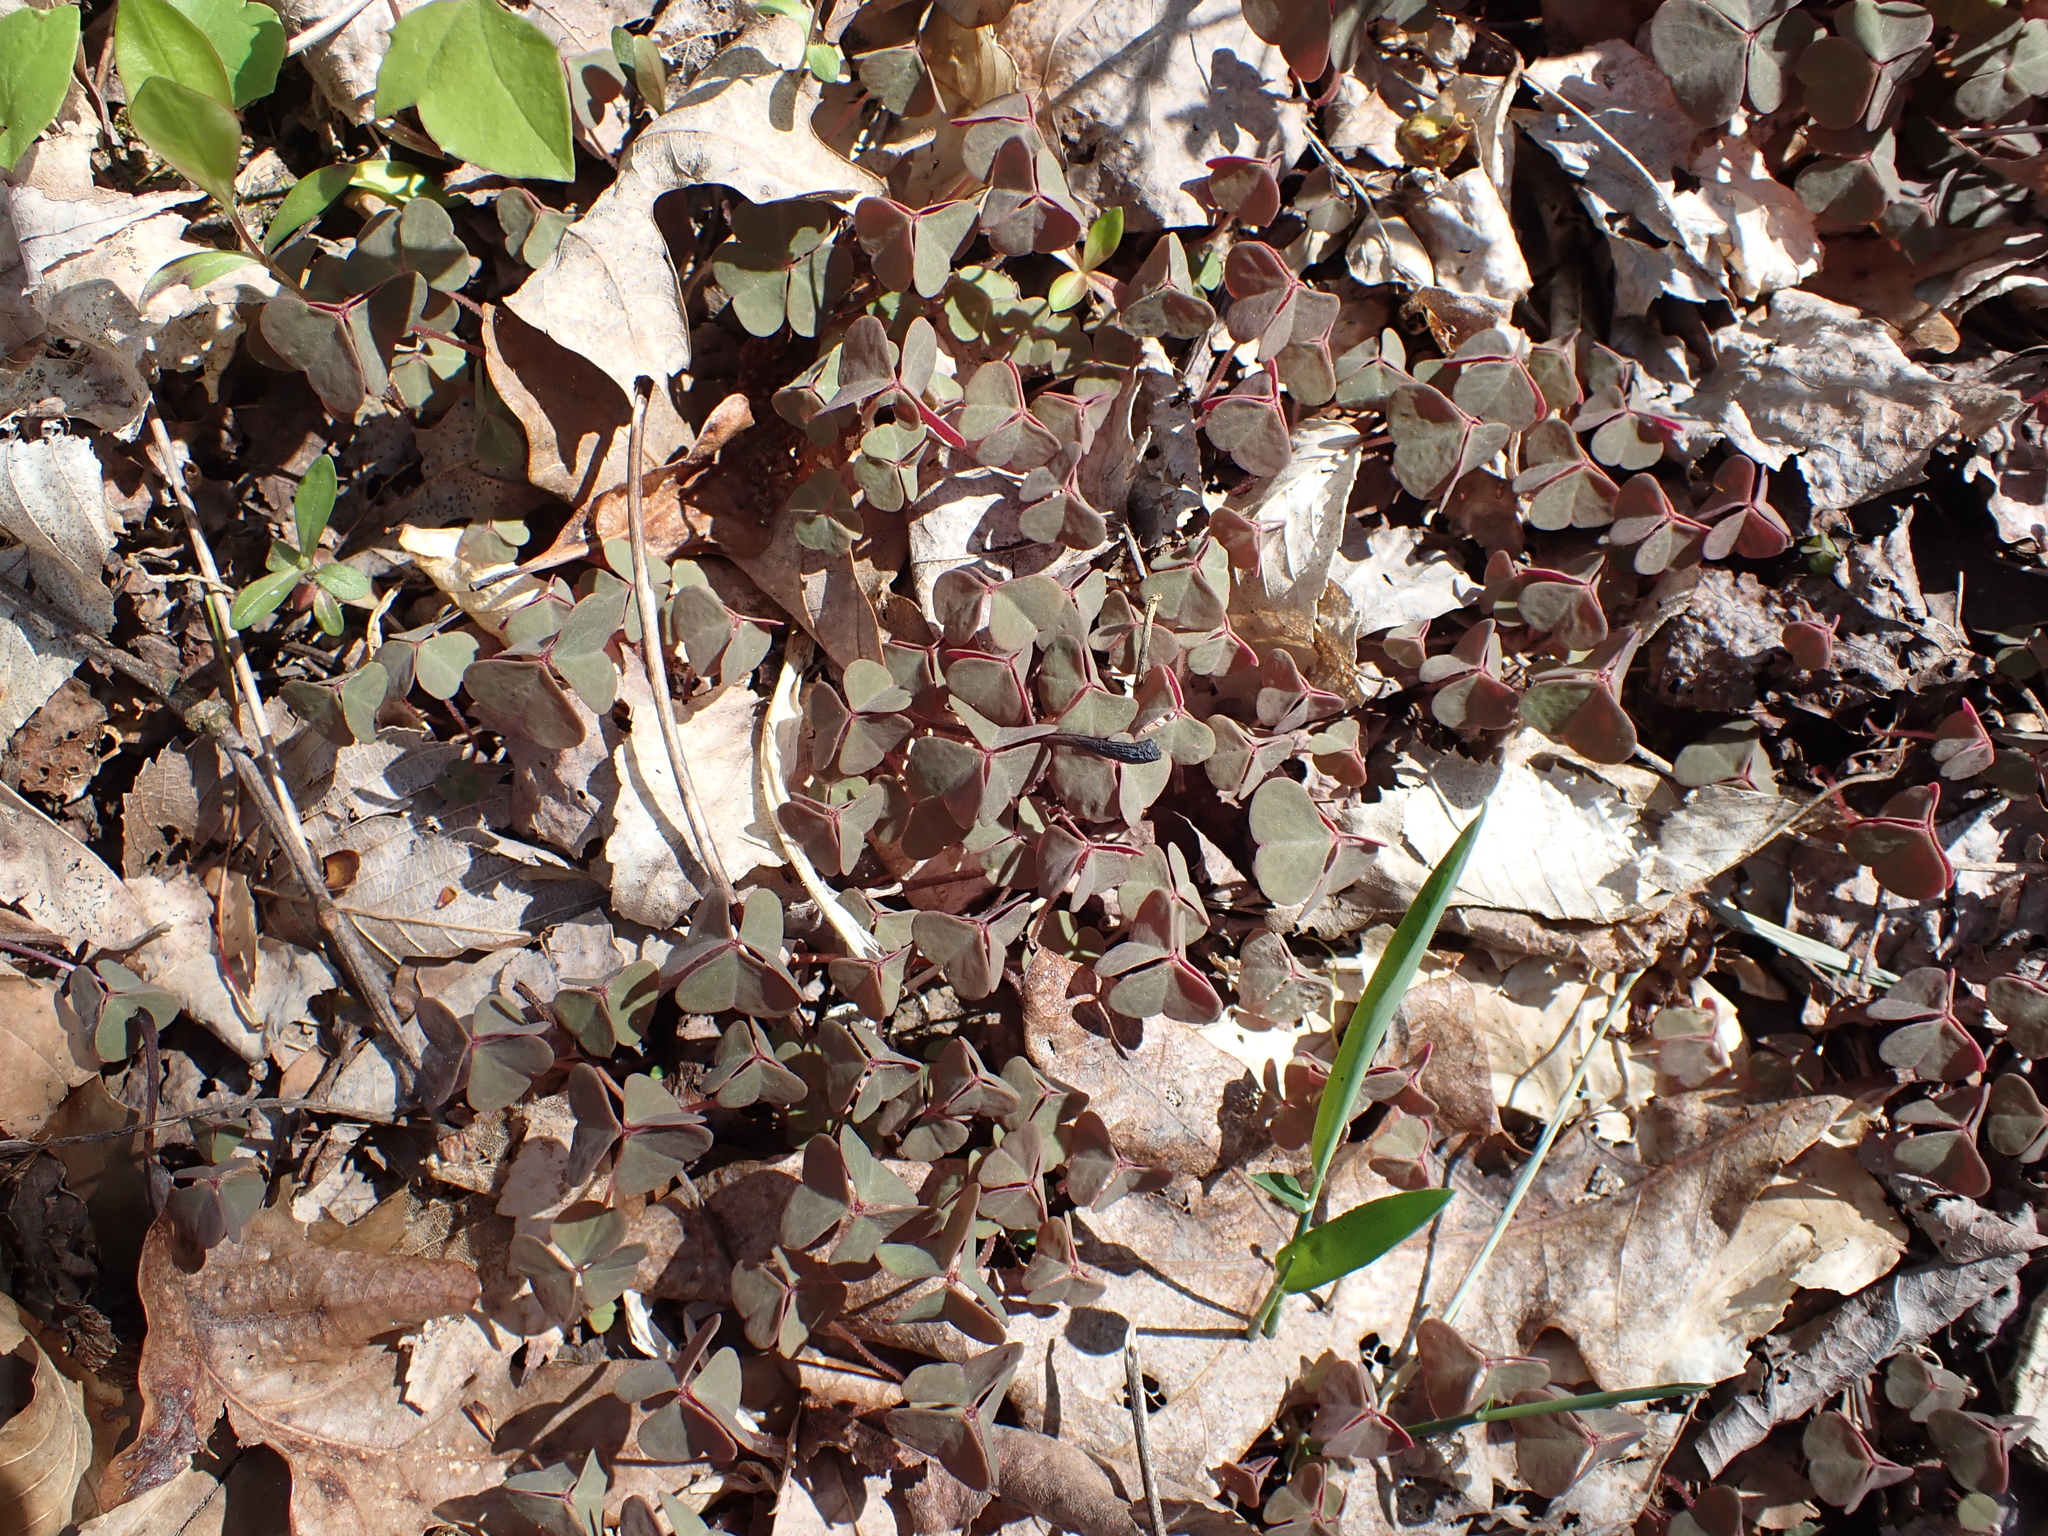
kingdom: Plantae
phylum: Tracheophyta
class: Magnoliopsida
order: Oxalidales
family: Oxalidaceae
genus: Oxalis
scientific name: Oxalis violacea
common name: Violet wood-sorrel
